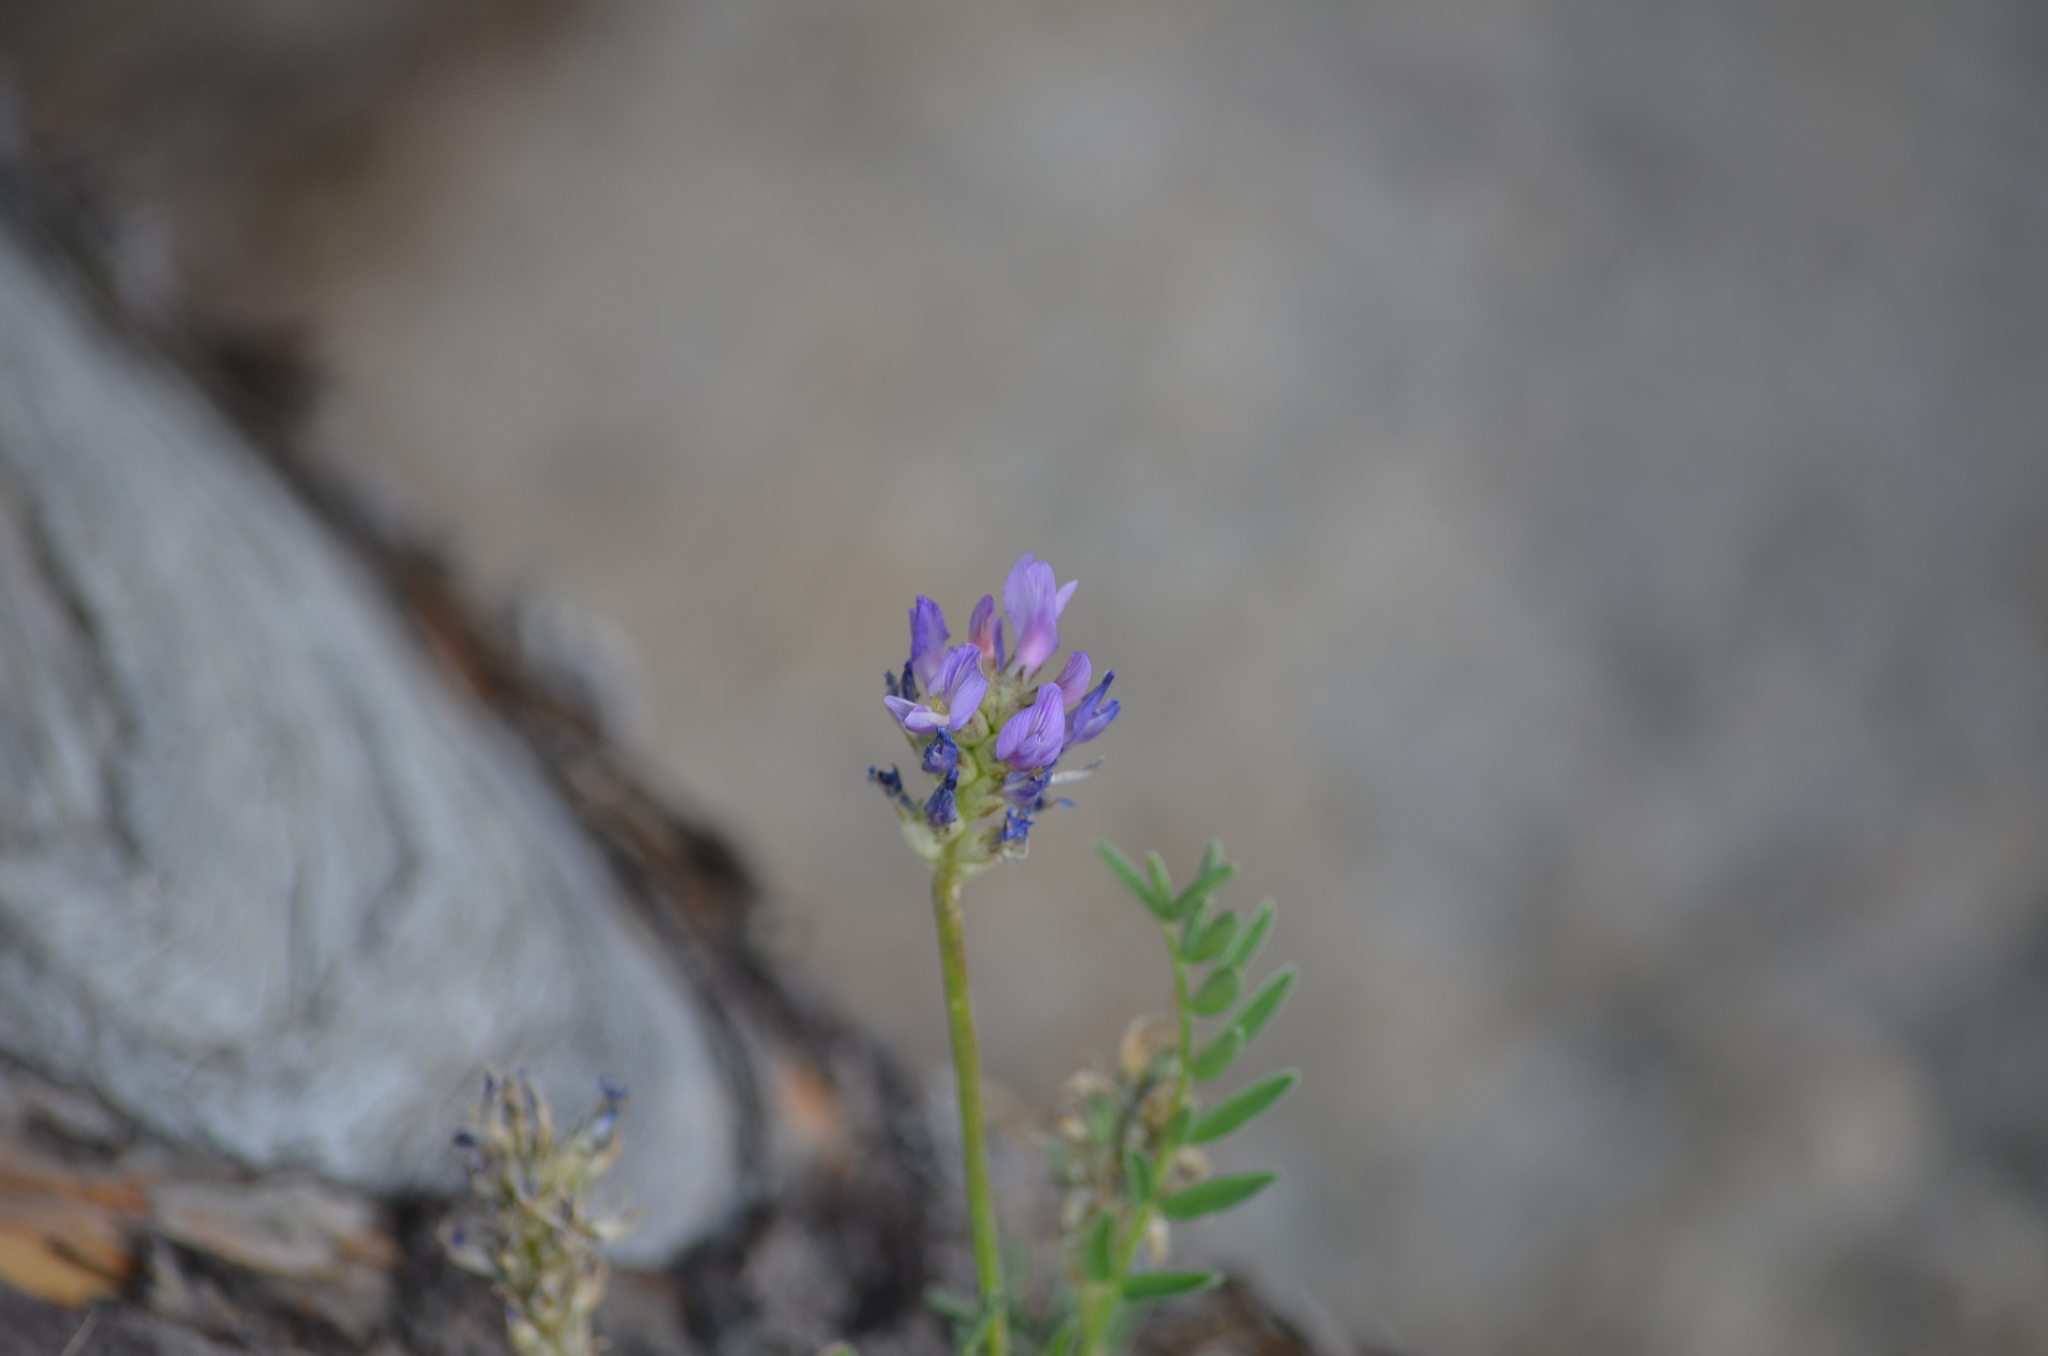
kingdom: Plantae
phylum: Tracheophyta
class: Magnoliopsida
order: Fabales
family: Fabaceae
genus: Astragalus
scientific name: Astragalus laxmannii
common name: Laxmann's milk-vetch
